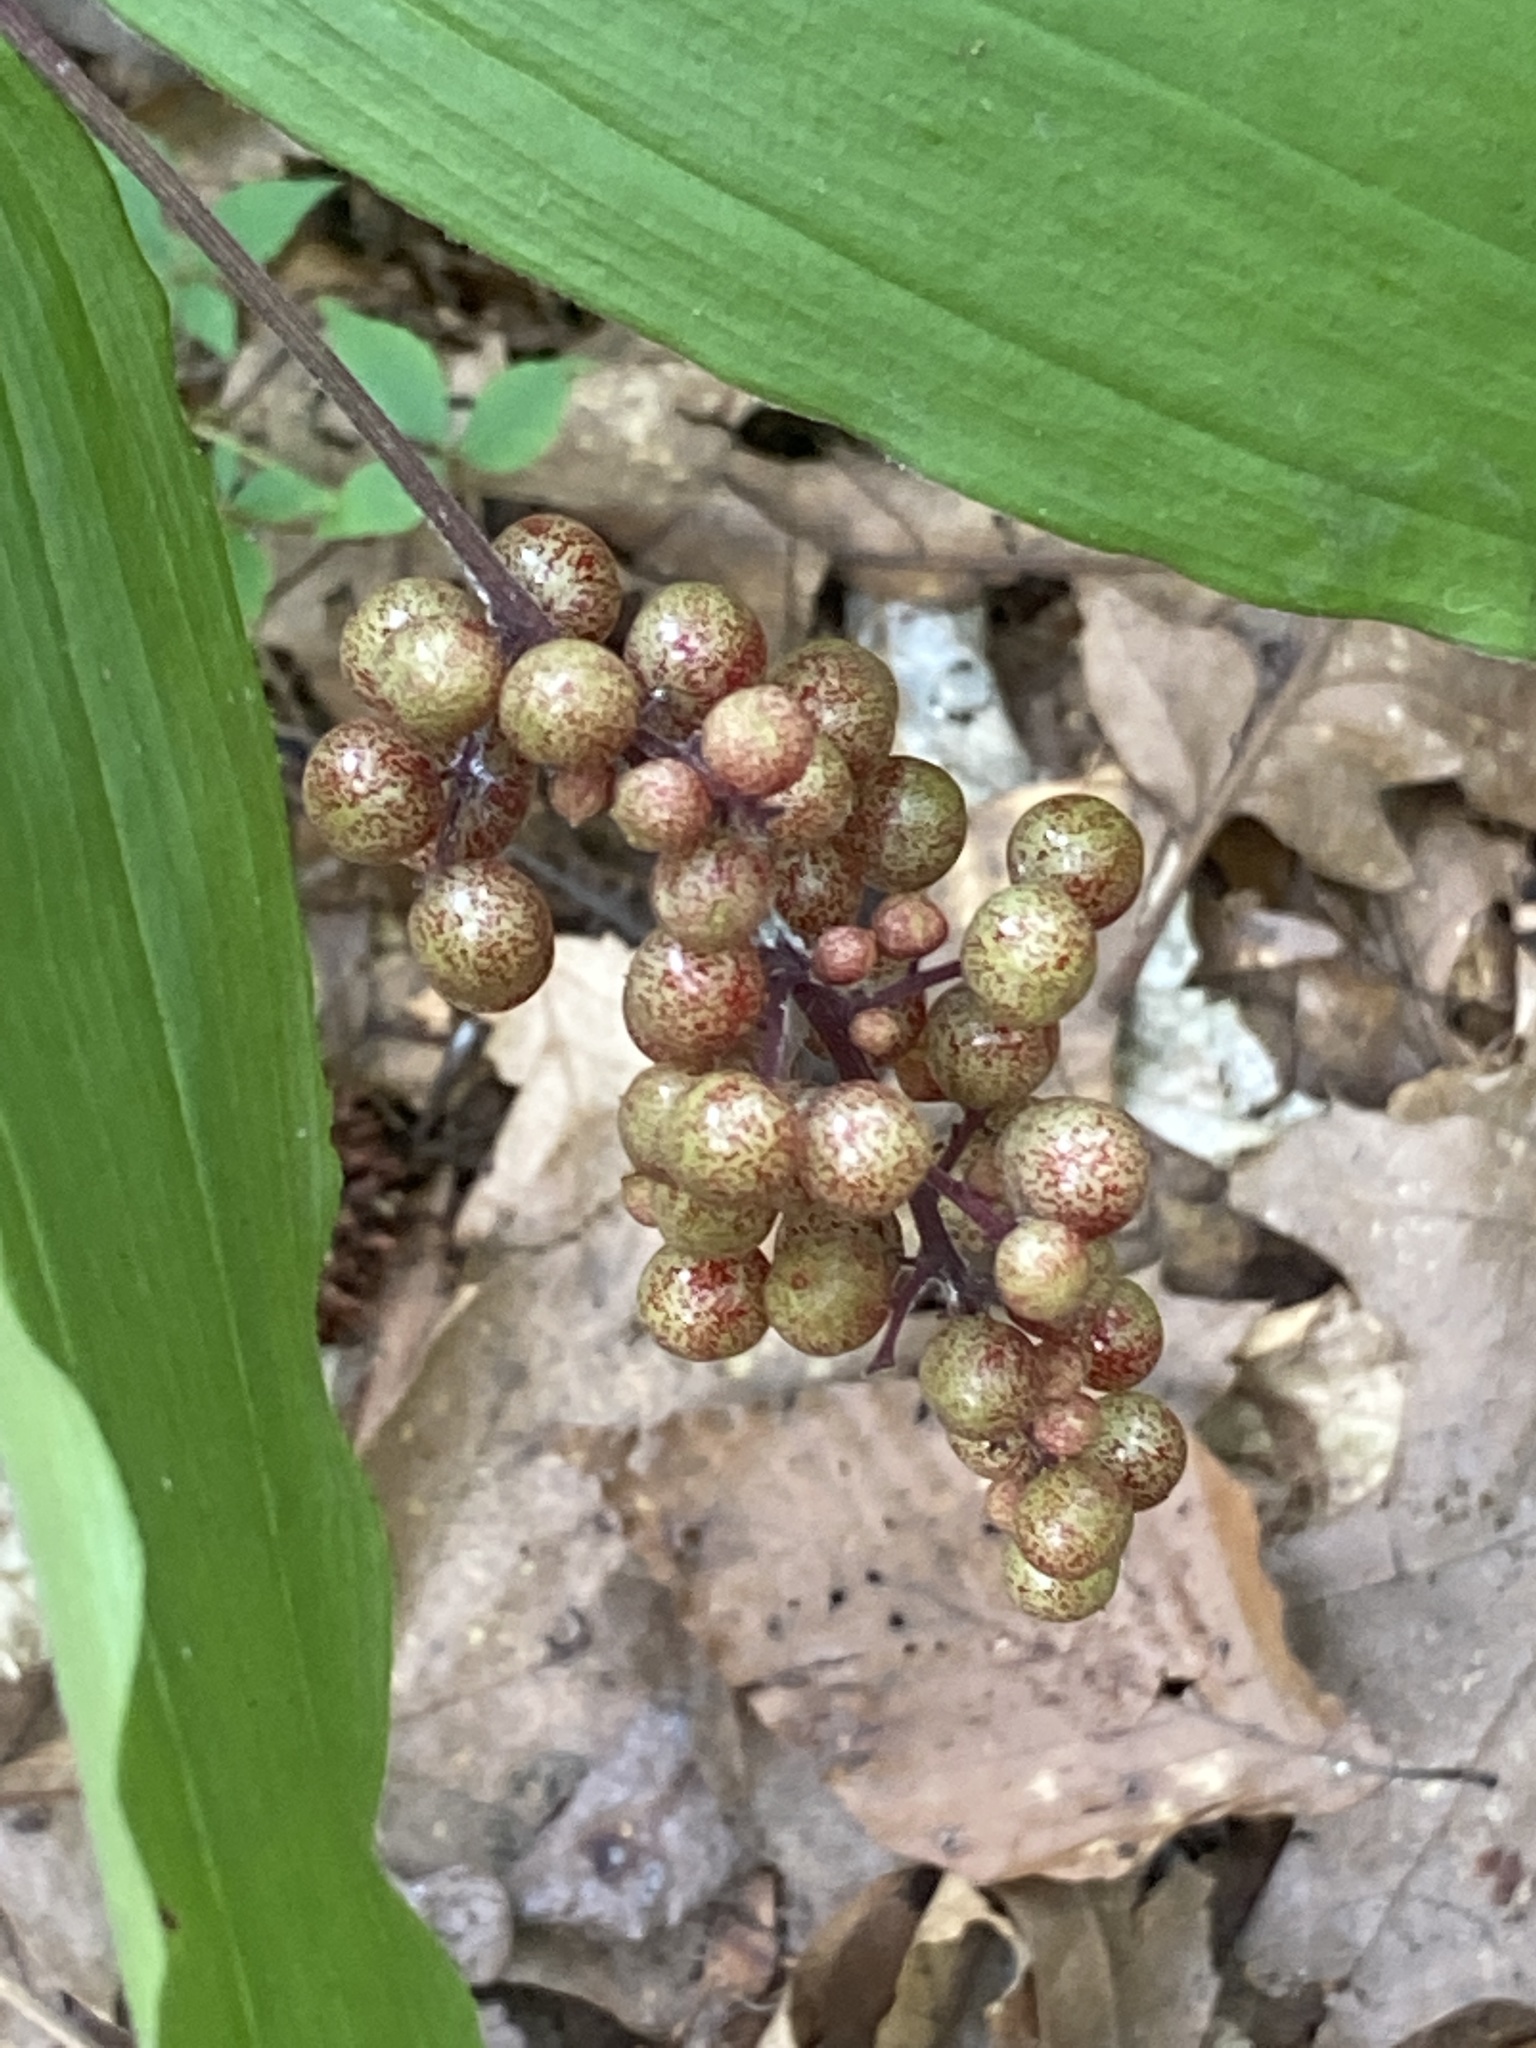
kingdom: Plantae
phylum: Tracheophyta
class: Liliopsida
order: Asparagales
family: Asparagaceae
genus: Maianthemum
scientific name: Maianthemum racemosum
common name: False spikenard
